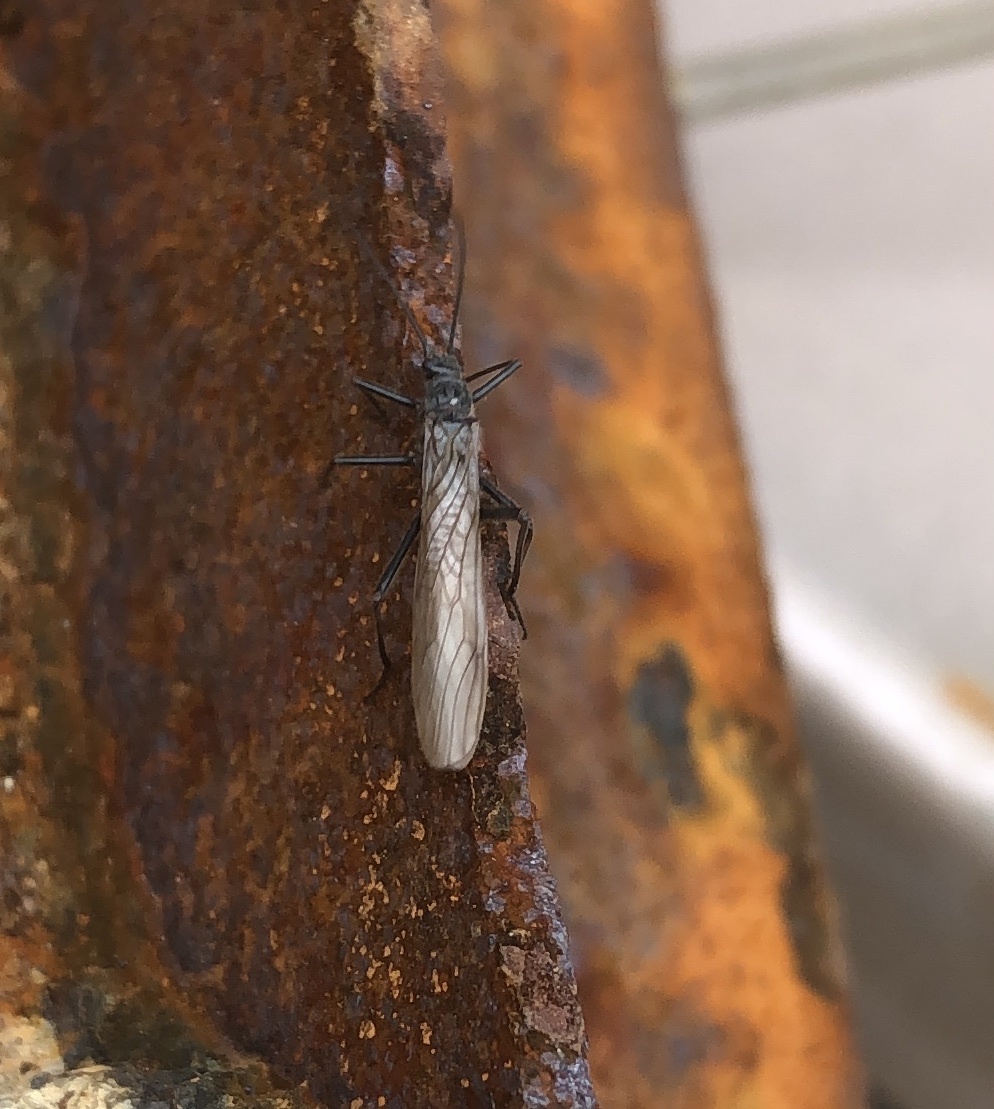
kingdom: Animalia
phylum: Arthropoda
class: Insecta
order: Plecoptera
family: Taeniopterygidae
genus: Taeniopteryx
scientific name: Taeniopteryx nebulosa
